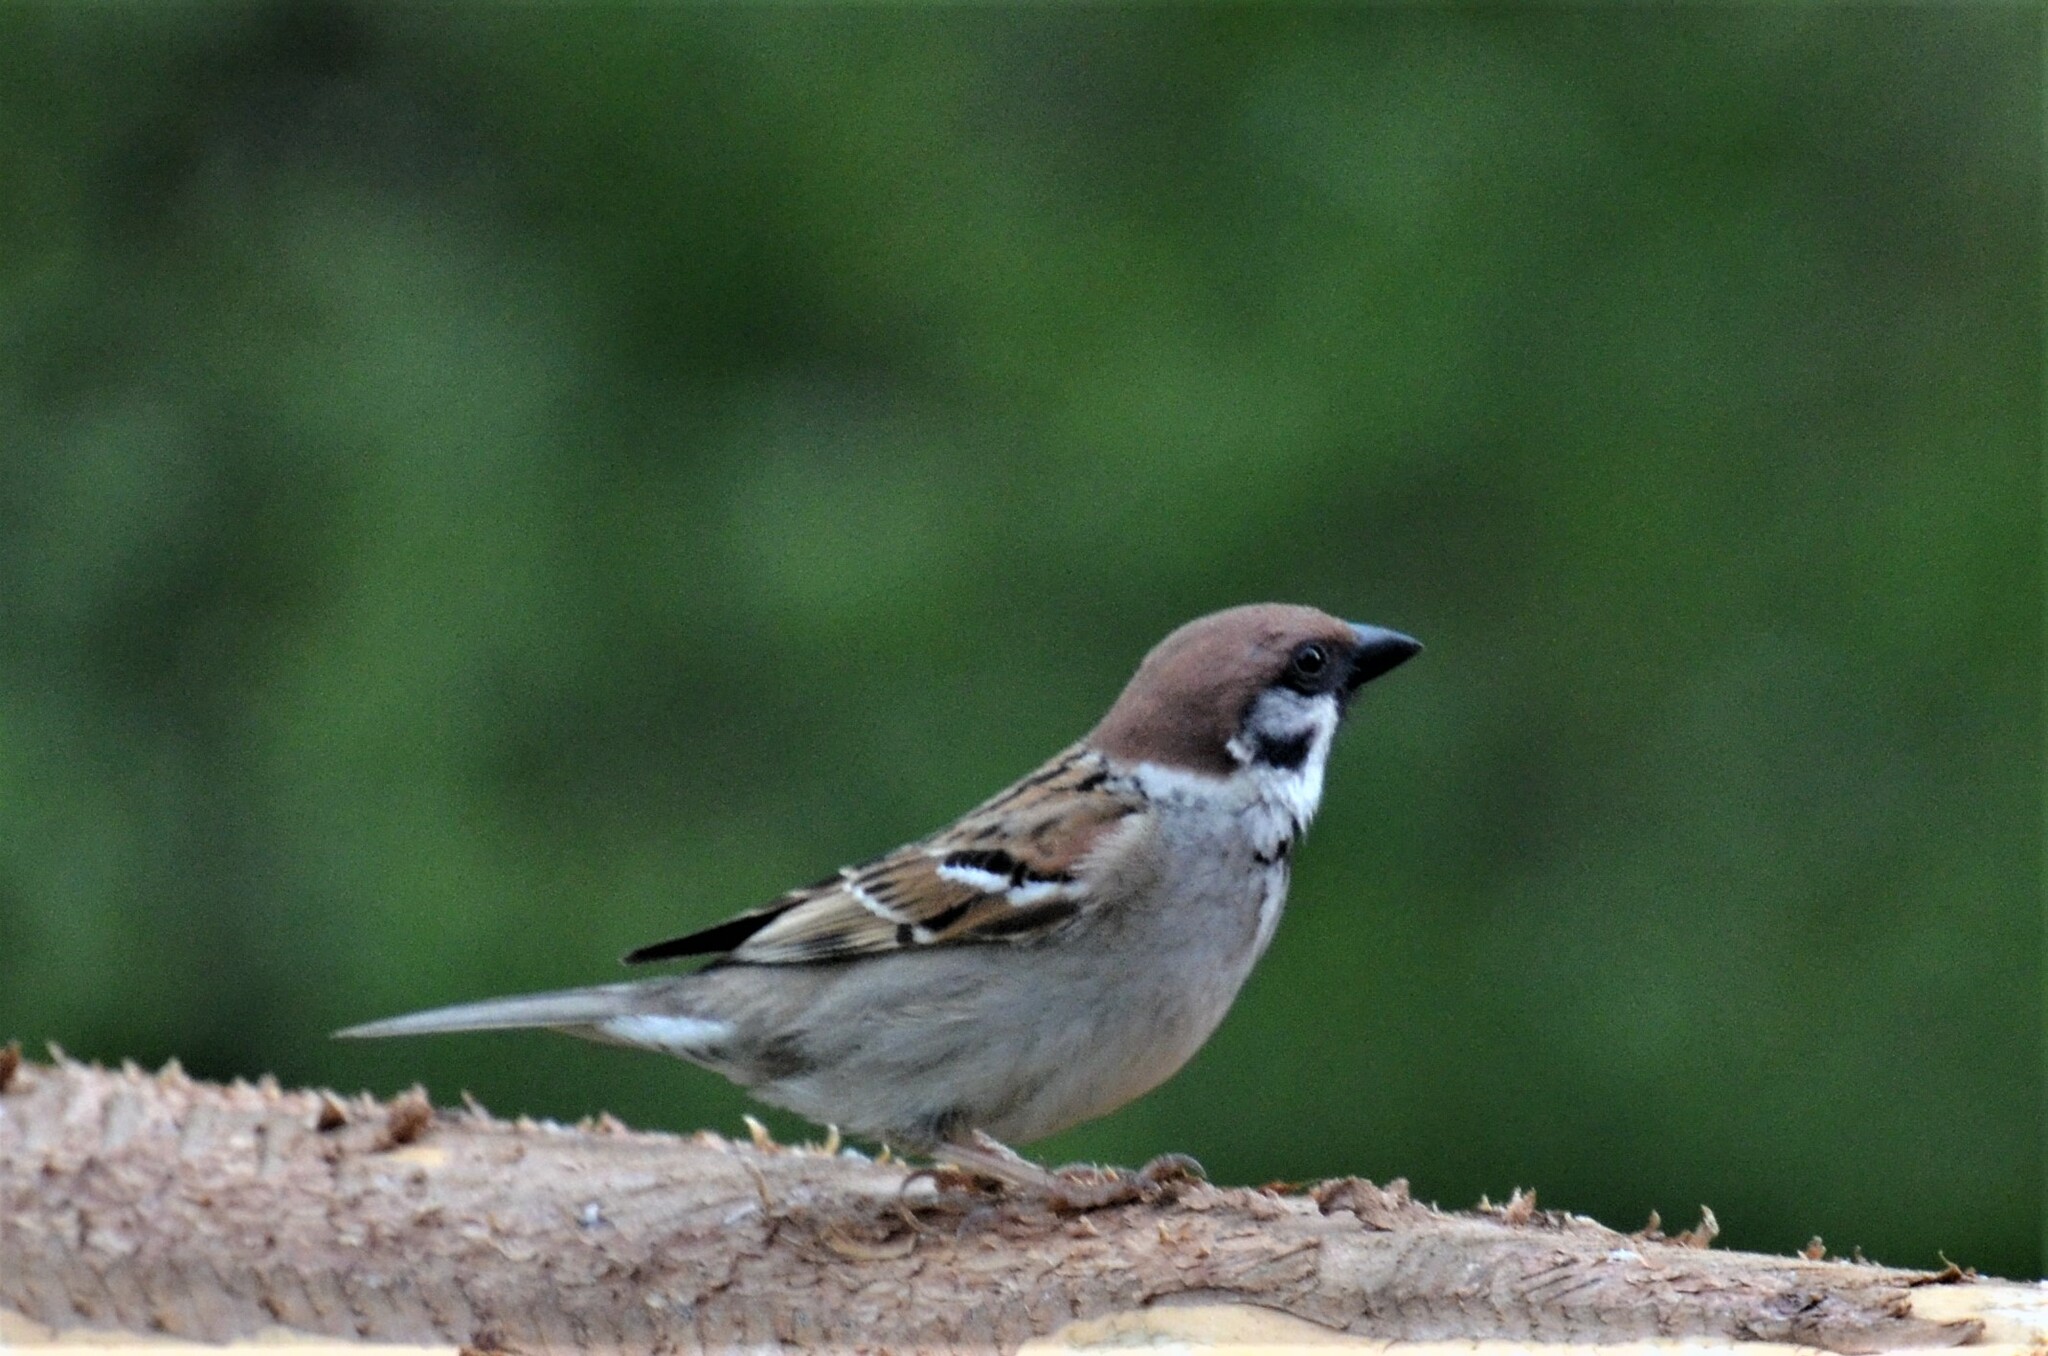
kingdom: Animalia
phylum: Chordata
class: Aves
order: Passeriformes
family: Passeridae
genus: Passer
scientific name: Passer montanus
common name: Eurasian tree sparrow
